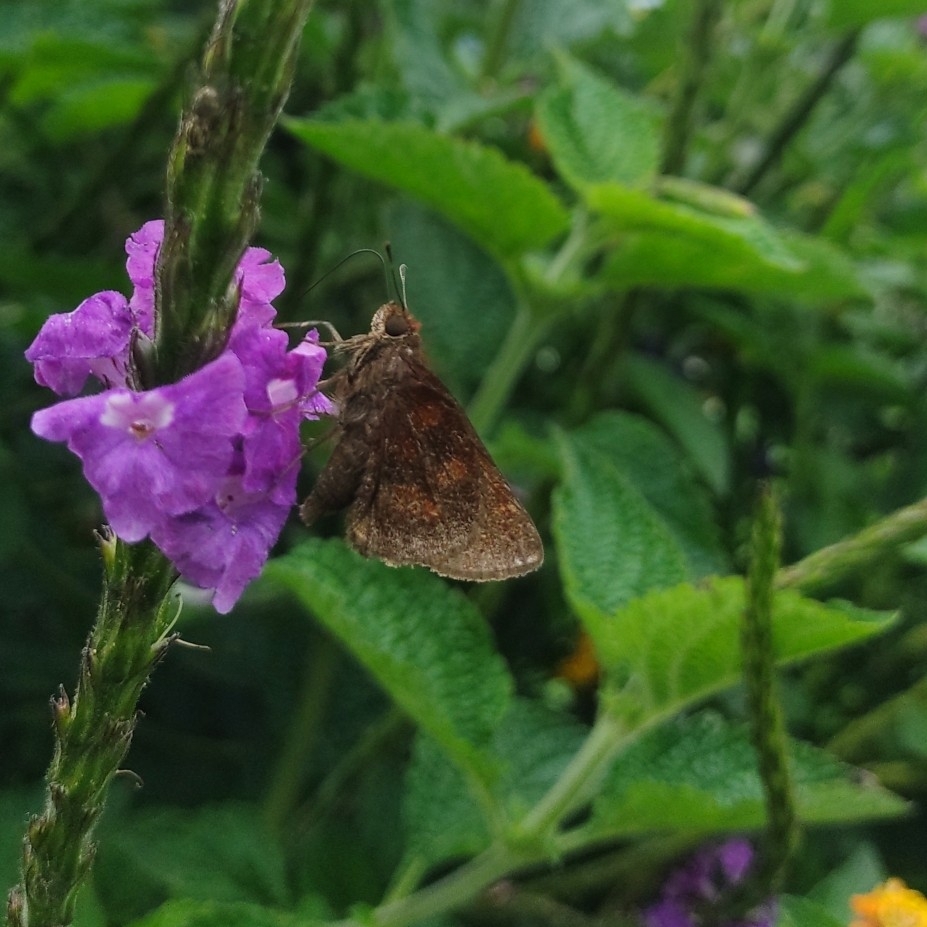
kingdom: Animalia
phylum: Arthropoda
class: Insecta
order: Lepidoptera
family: Hesperiidae
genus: Quinta
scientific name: Quinta cannae
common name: Canna skipper
